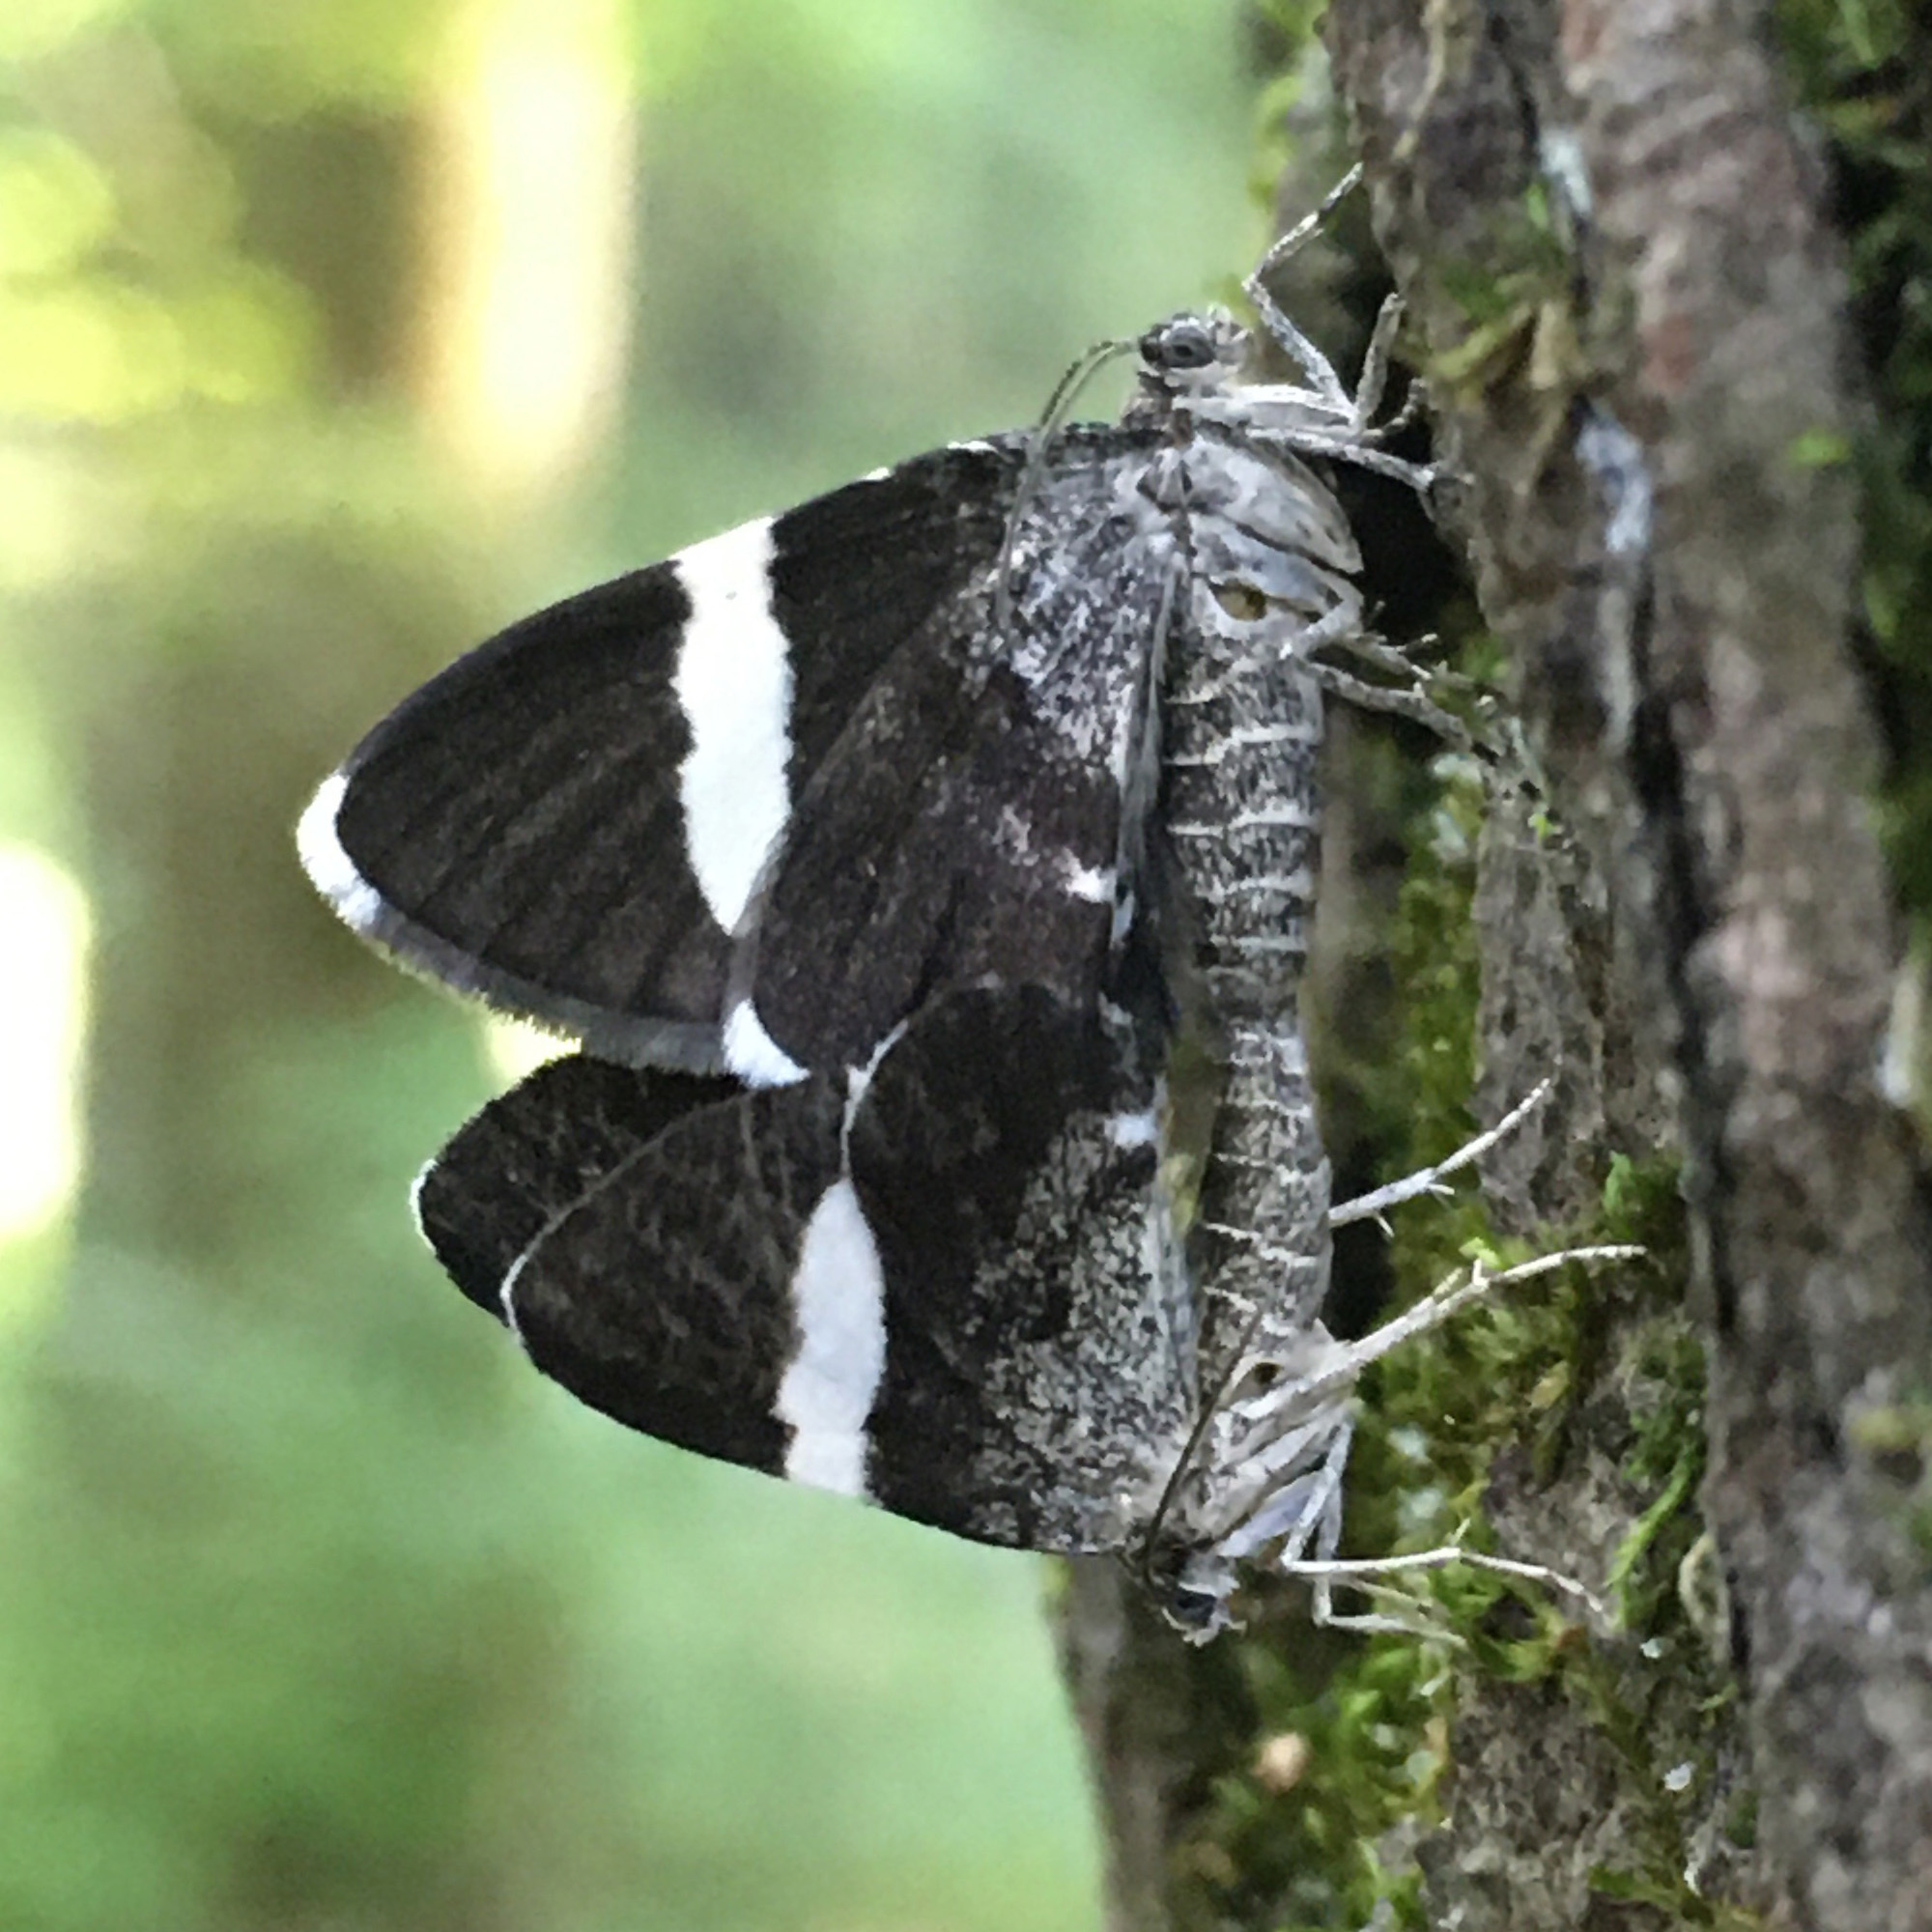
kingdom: Animalia
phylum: Arthropoda
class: Insecta
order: Lepidoptera
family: Geometridae
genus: Trichodezia
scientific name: Trichodezia albovittata
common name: White striped black
